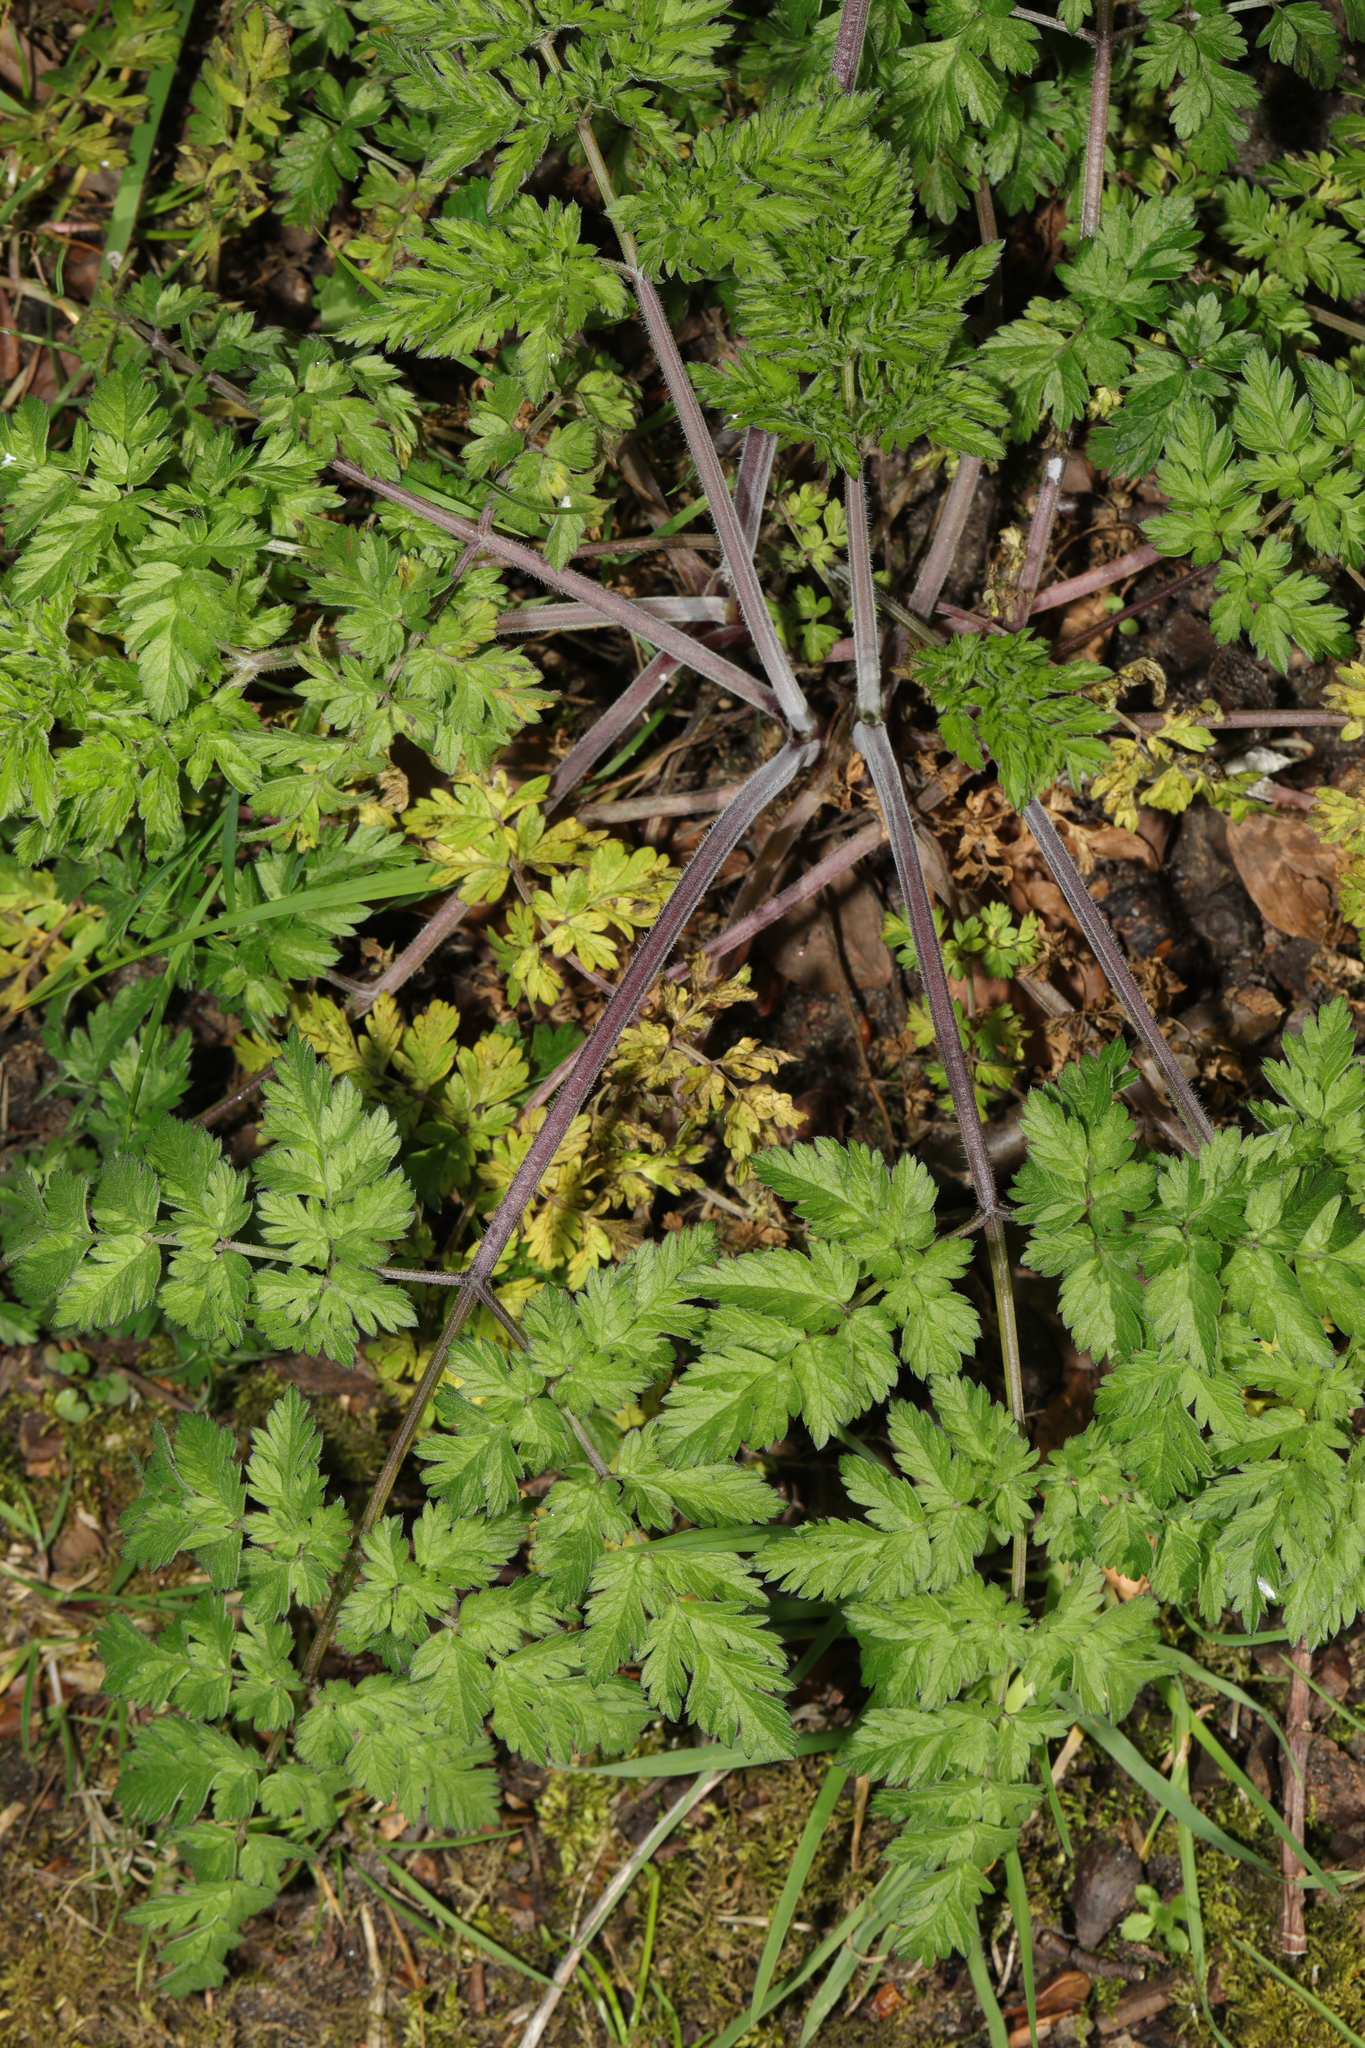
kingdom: Plantae
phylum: Tracheophyta
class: Magnoliopsida
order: Apiales
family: Apiaceae
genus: Anthriscus
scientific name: Anthriscus sylvestris
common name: Cow parsley
